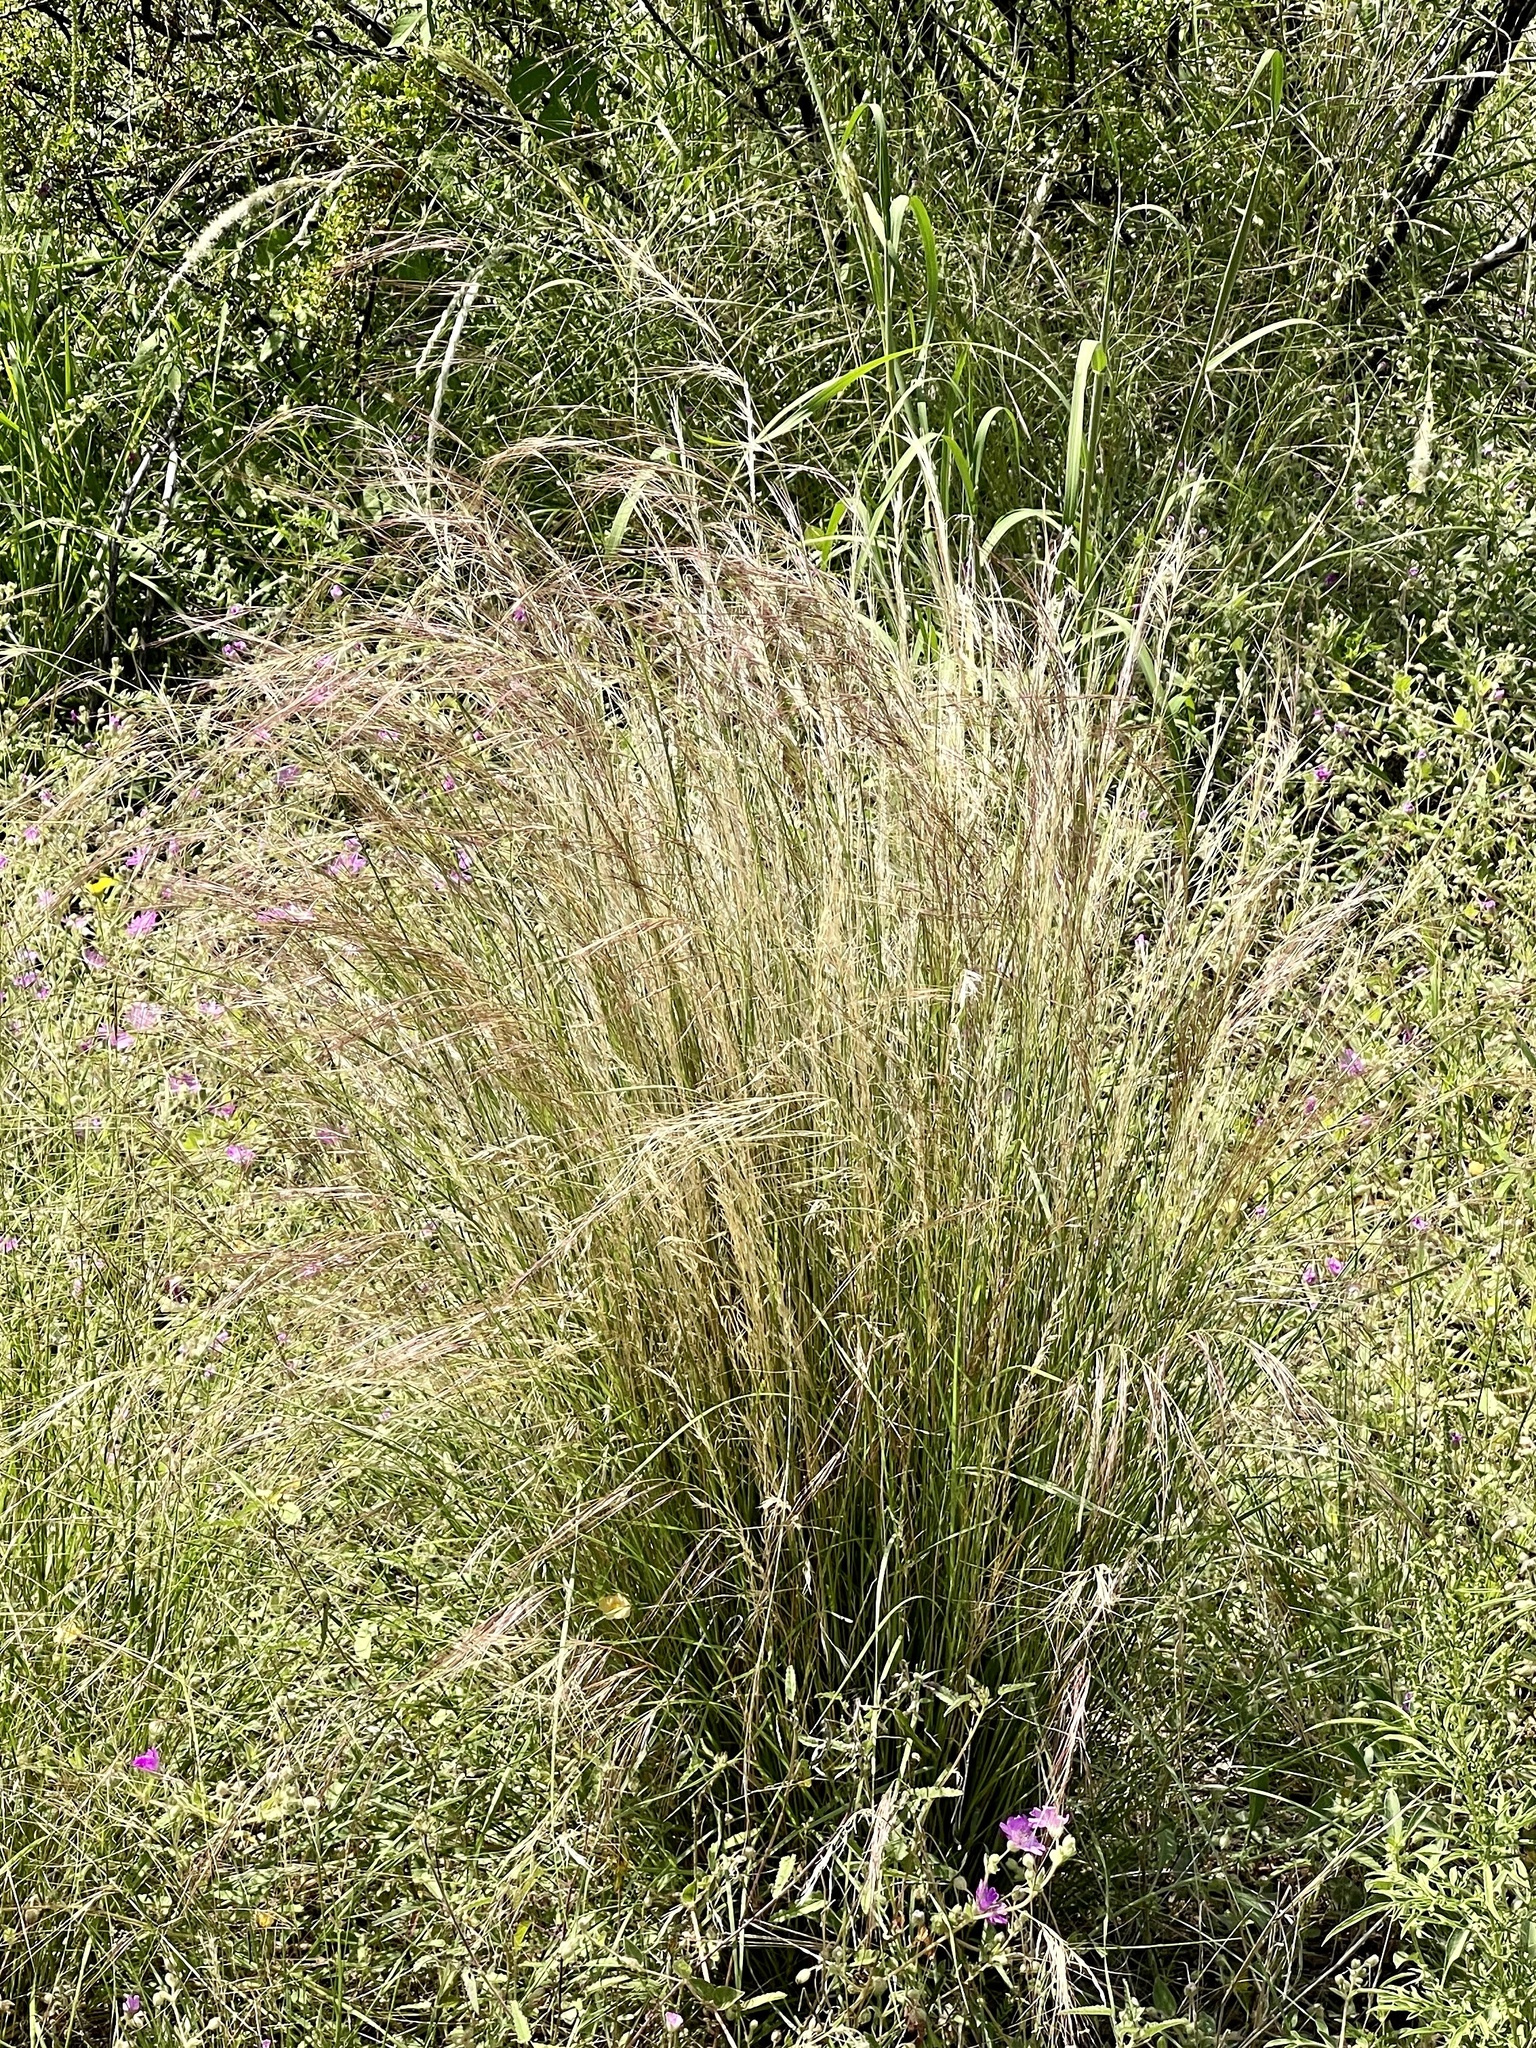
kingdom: Plantae
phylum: Tracheophyta
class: Liliopsida
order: Poales
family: Poaceae
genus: Aristida
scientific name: Aristida purpurea
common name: Purple threeawn
